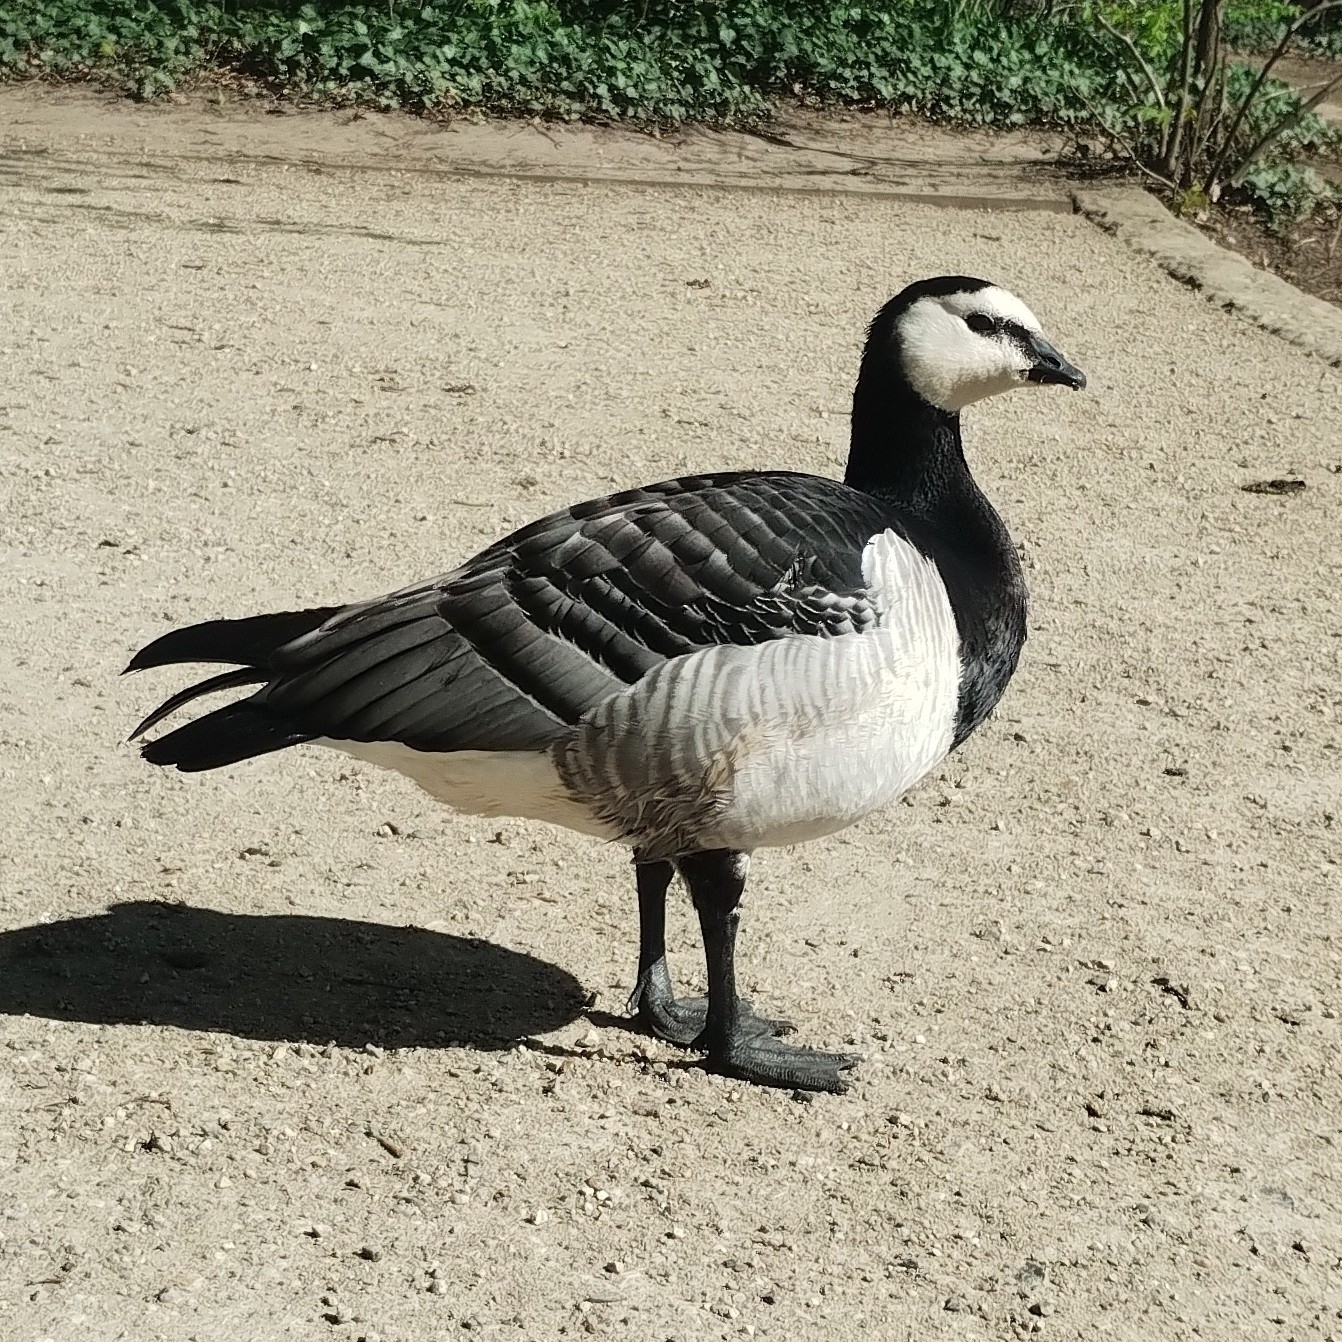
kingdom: Animalia
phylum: Chordata
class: Aves
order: Anseriformes
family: Anatidae
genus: Branta
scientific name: Branta leucopsis
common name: Barnacle goose
